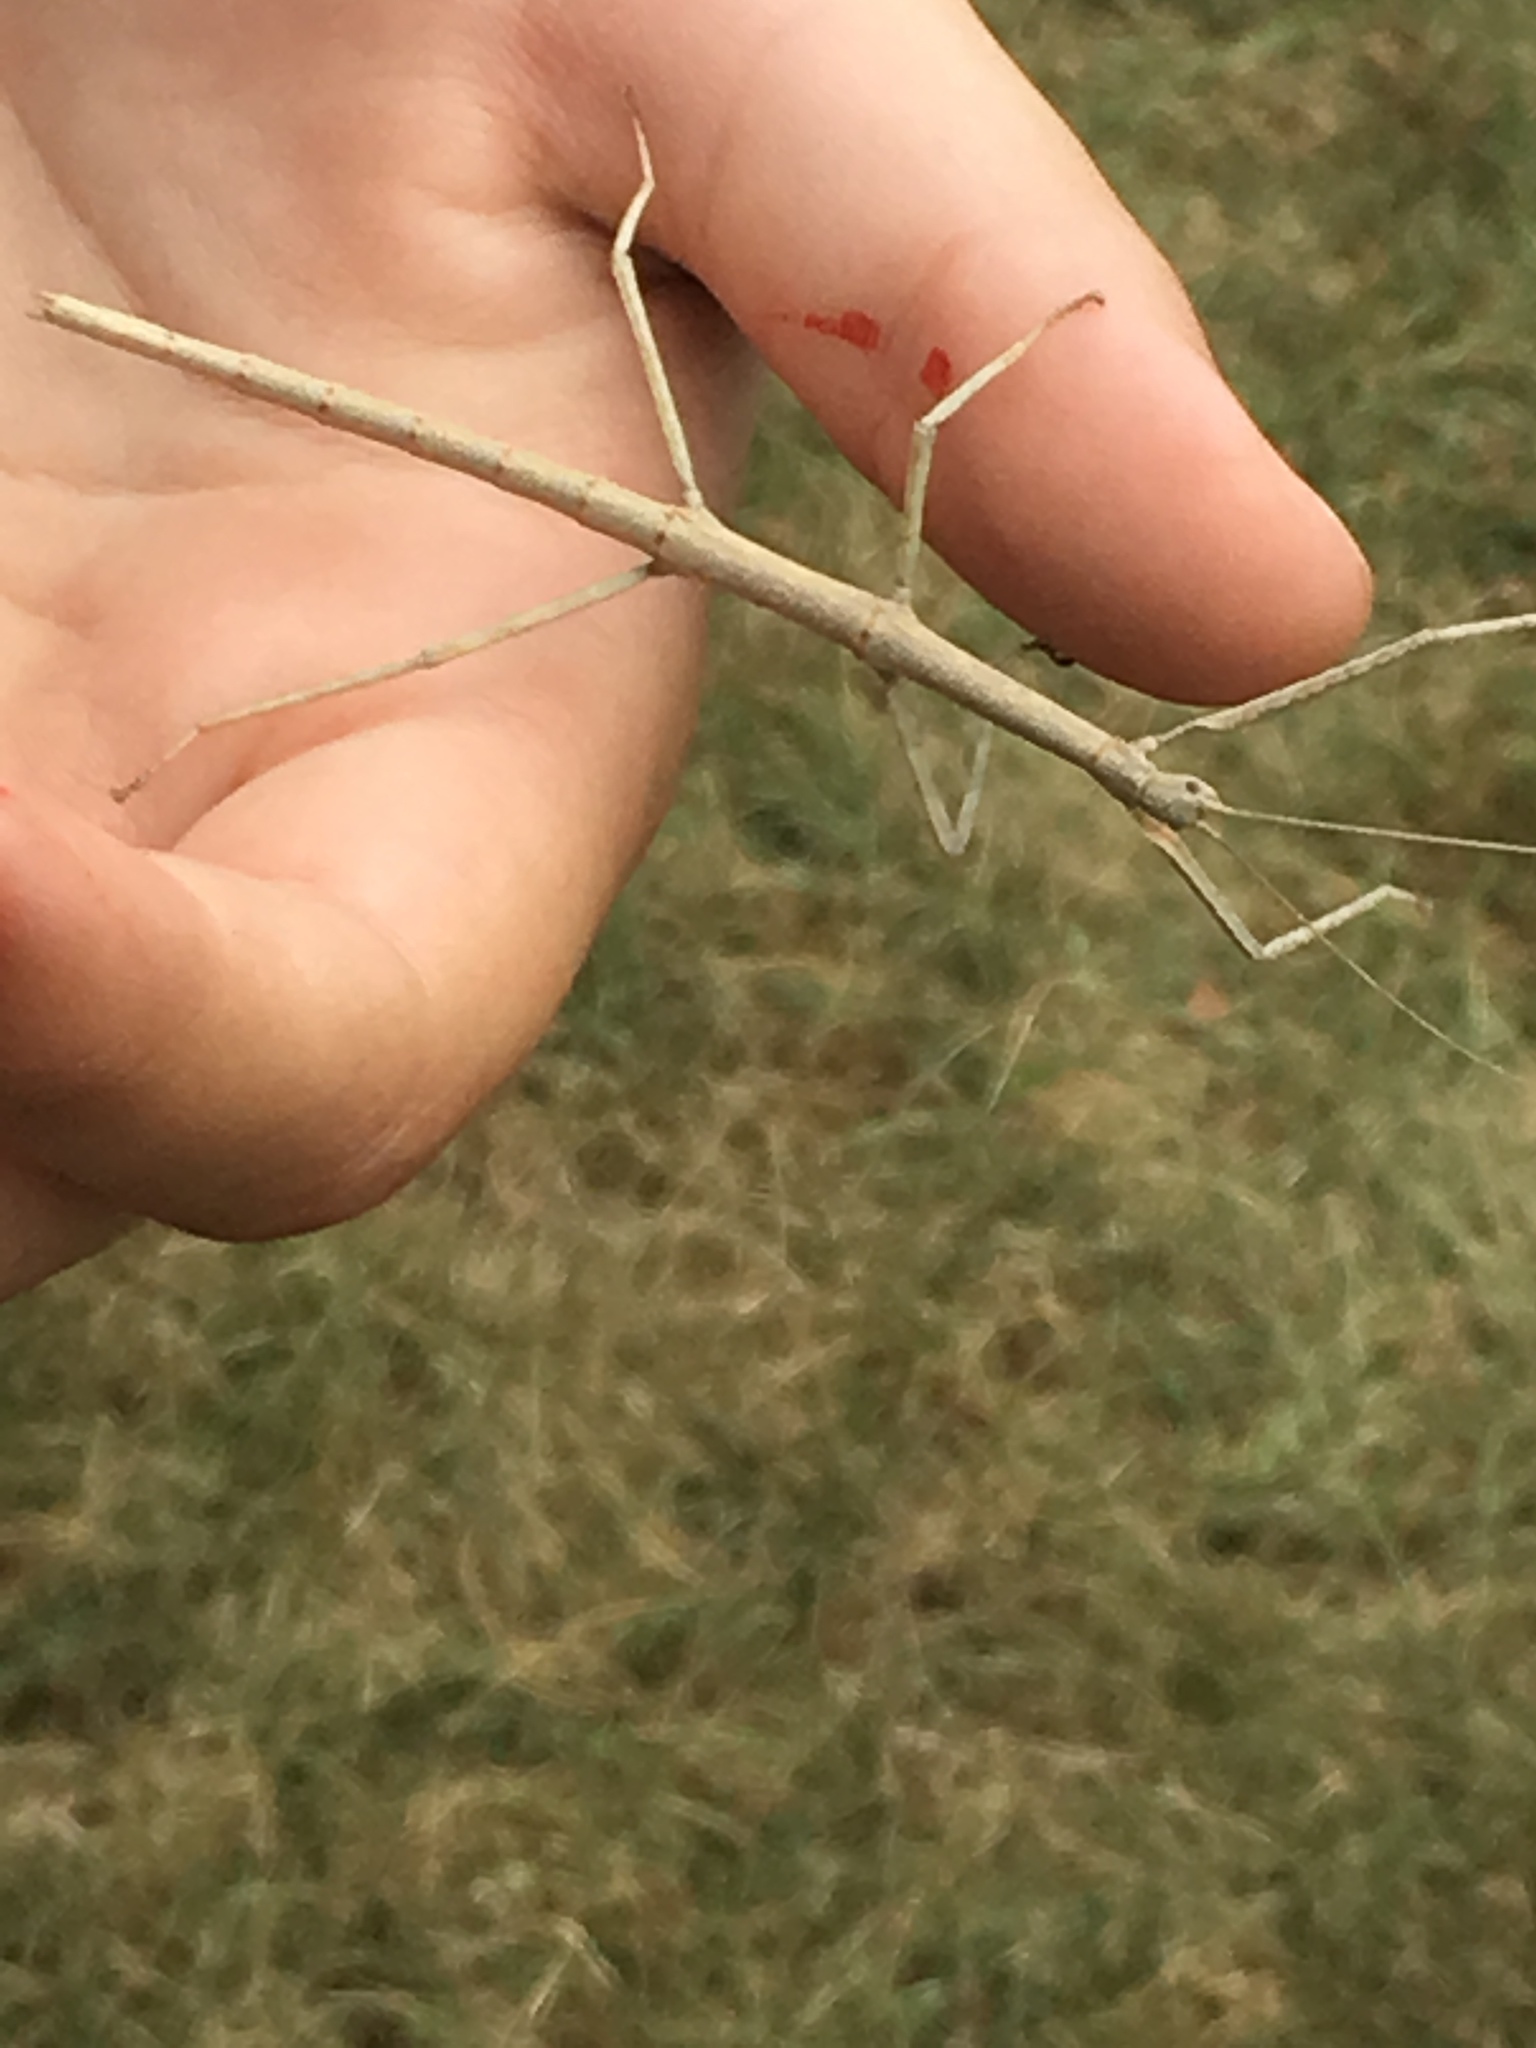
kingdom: Animalia
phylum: Arthropoda
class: Insecta
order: Phasmida
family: Diapheromeridae
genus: Diapheromera
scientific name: Diapheromera femorata
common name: Common american walkingstick
